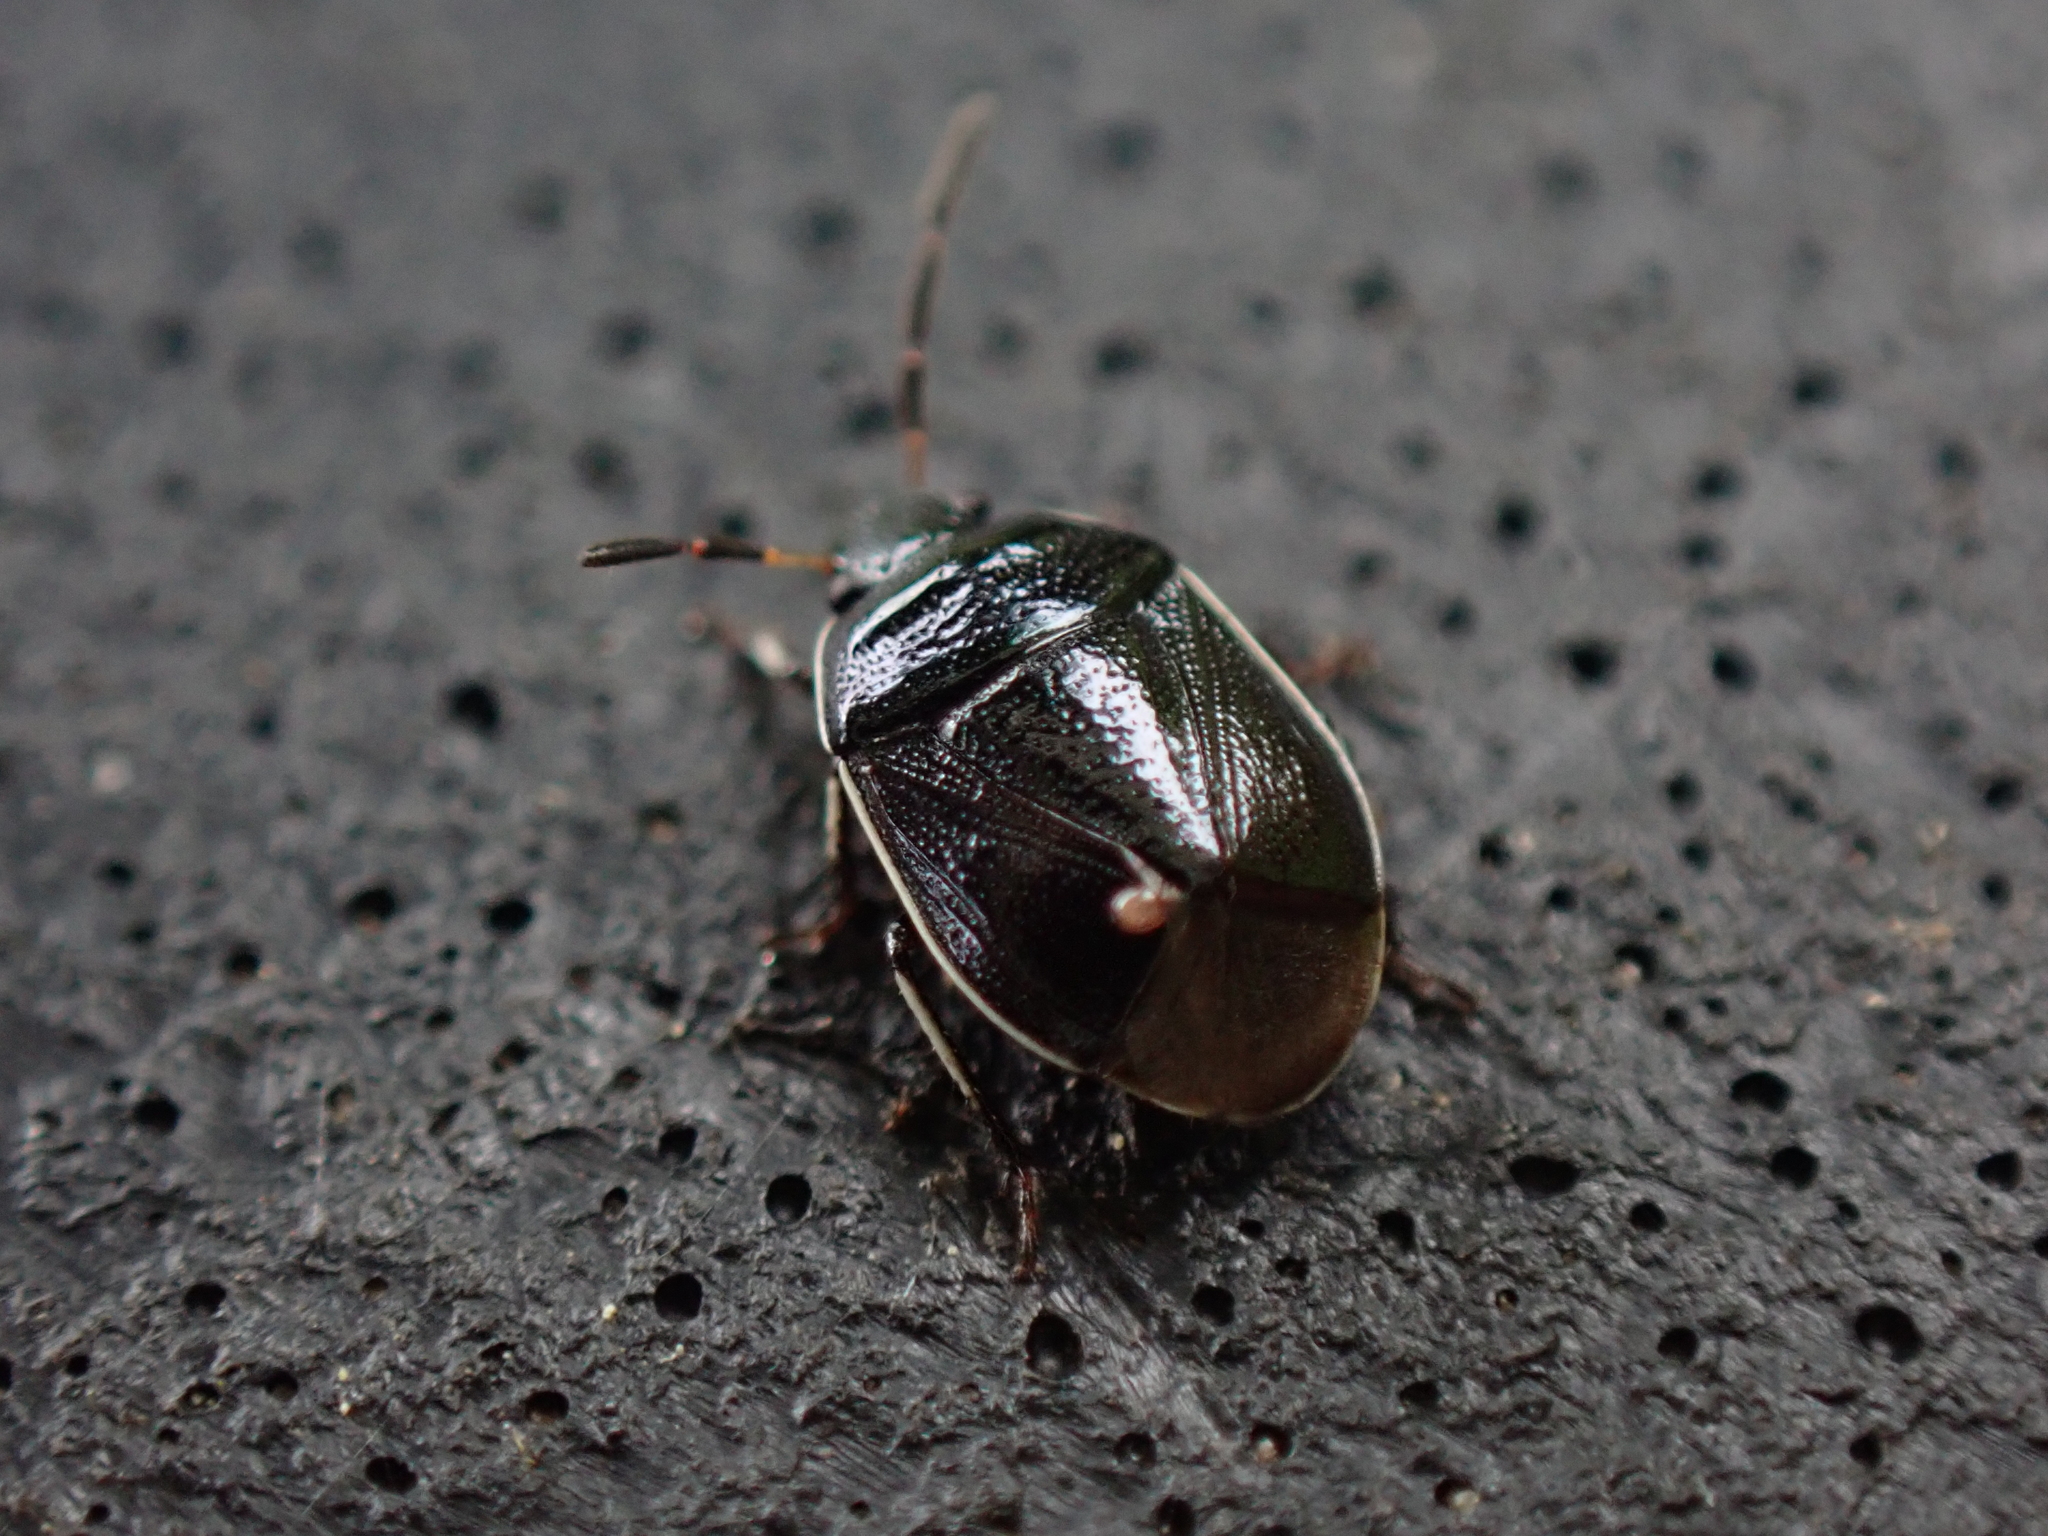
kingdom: Animalia
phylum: Arthropoda
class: Insecta
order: Hemiptera
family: Cydnidae
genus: Sehirus
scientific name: Sehirus cinctus
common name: White-margined burrower bug
